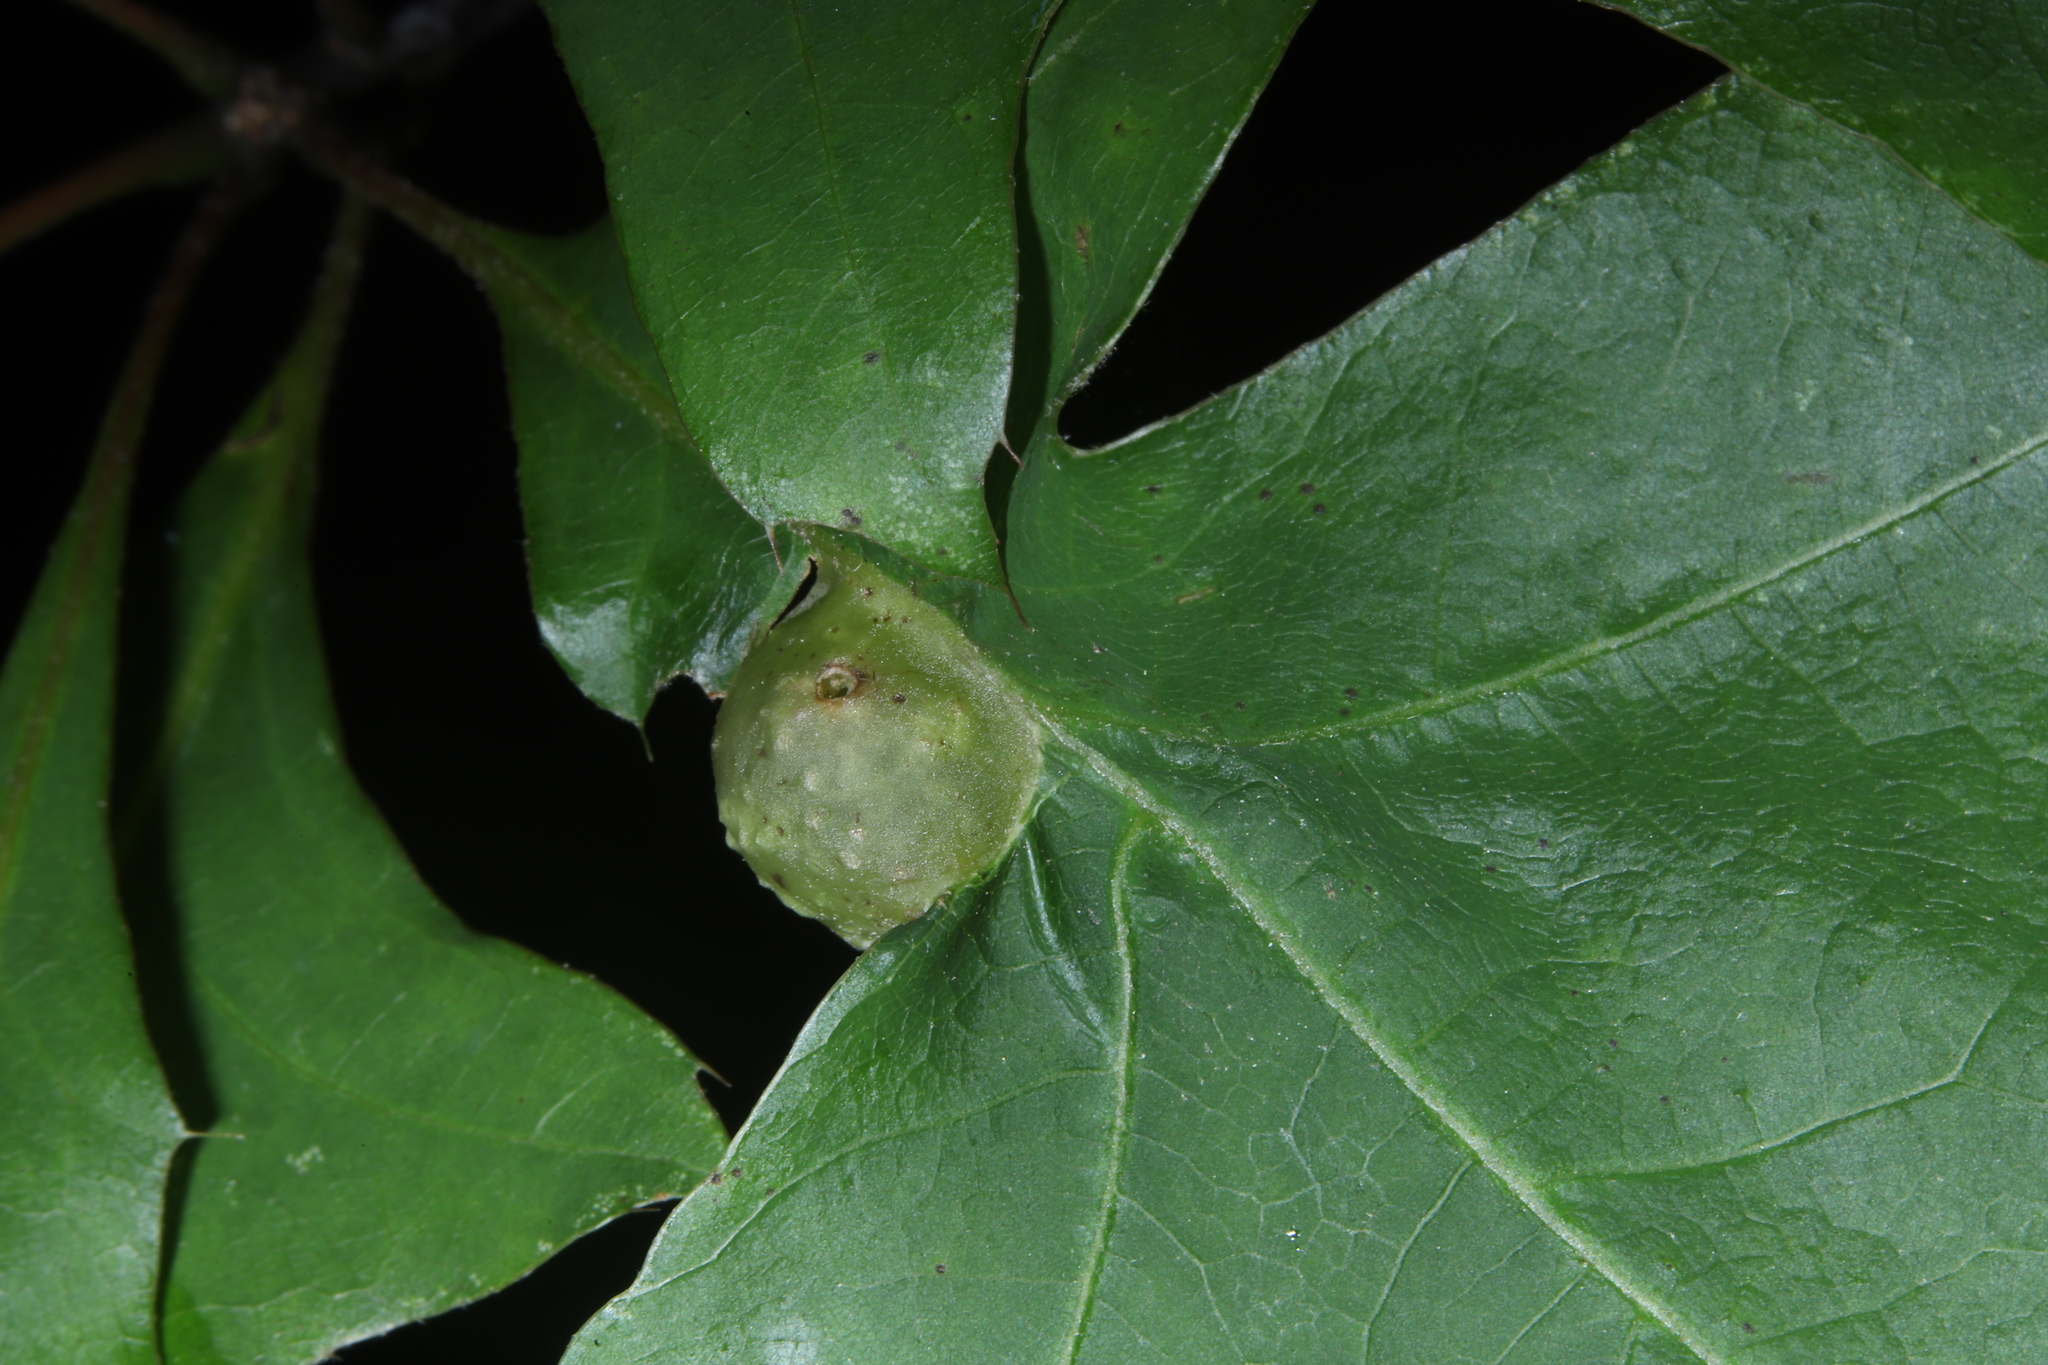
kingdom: Animalia
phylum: Arthropoda
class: Insecta
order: Hymenoptera
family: Cynipidae
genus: Dryocosmus
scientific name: Dryocosmus quercuspalustris
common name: Succulent oak gall wasp
